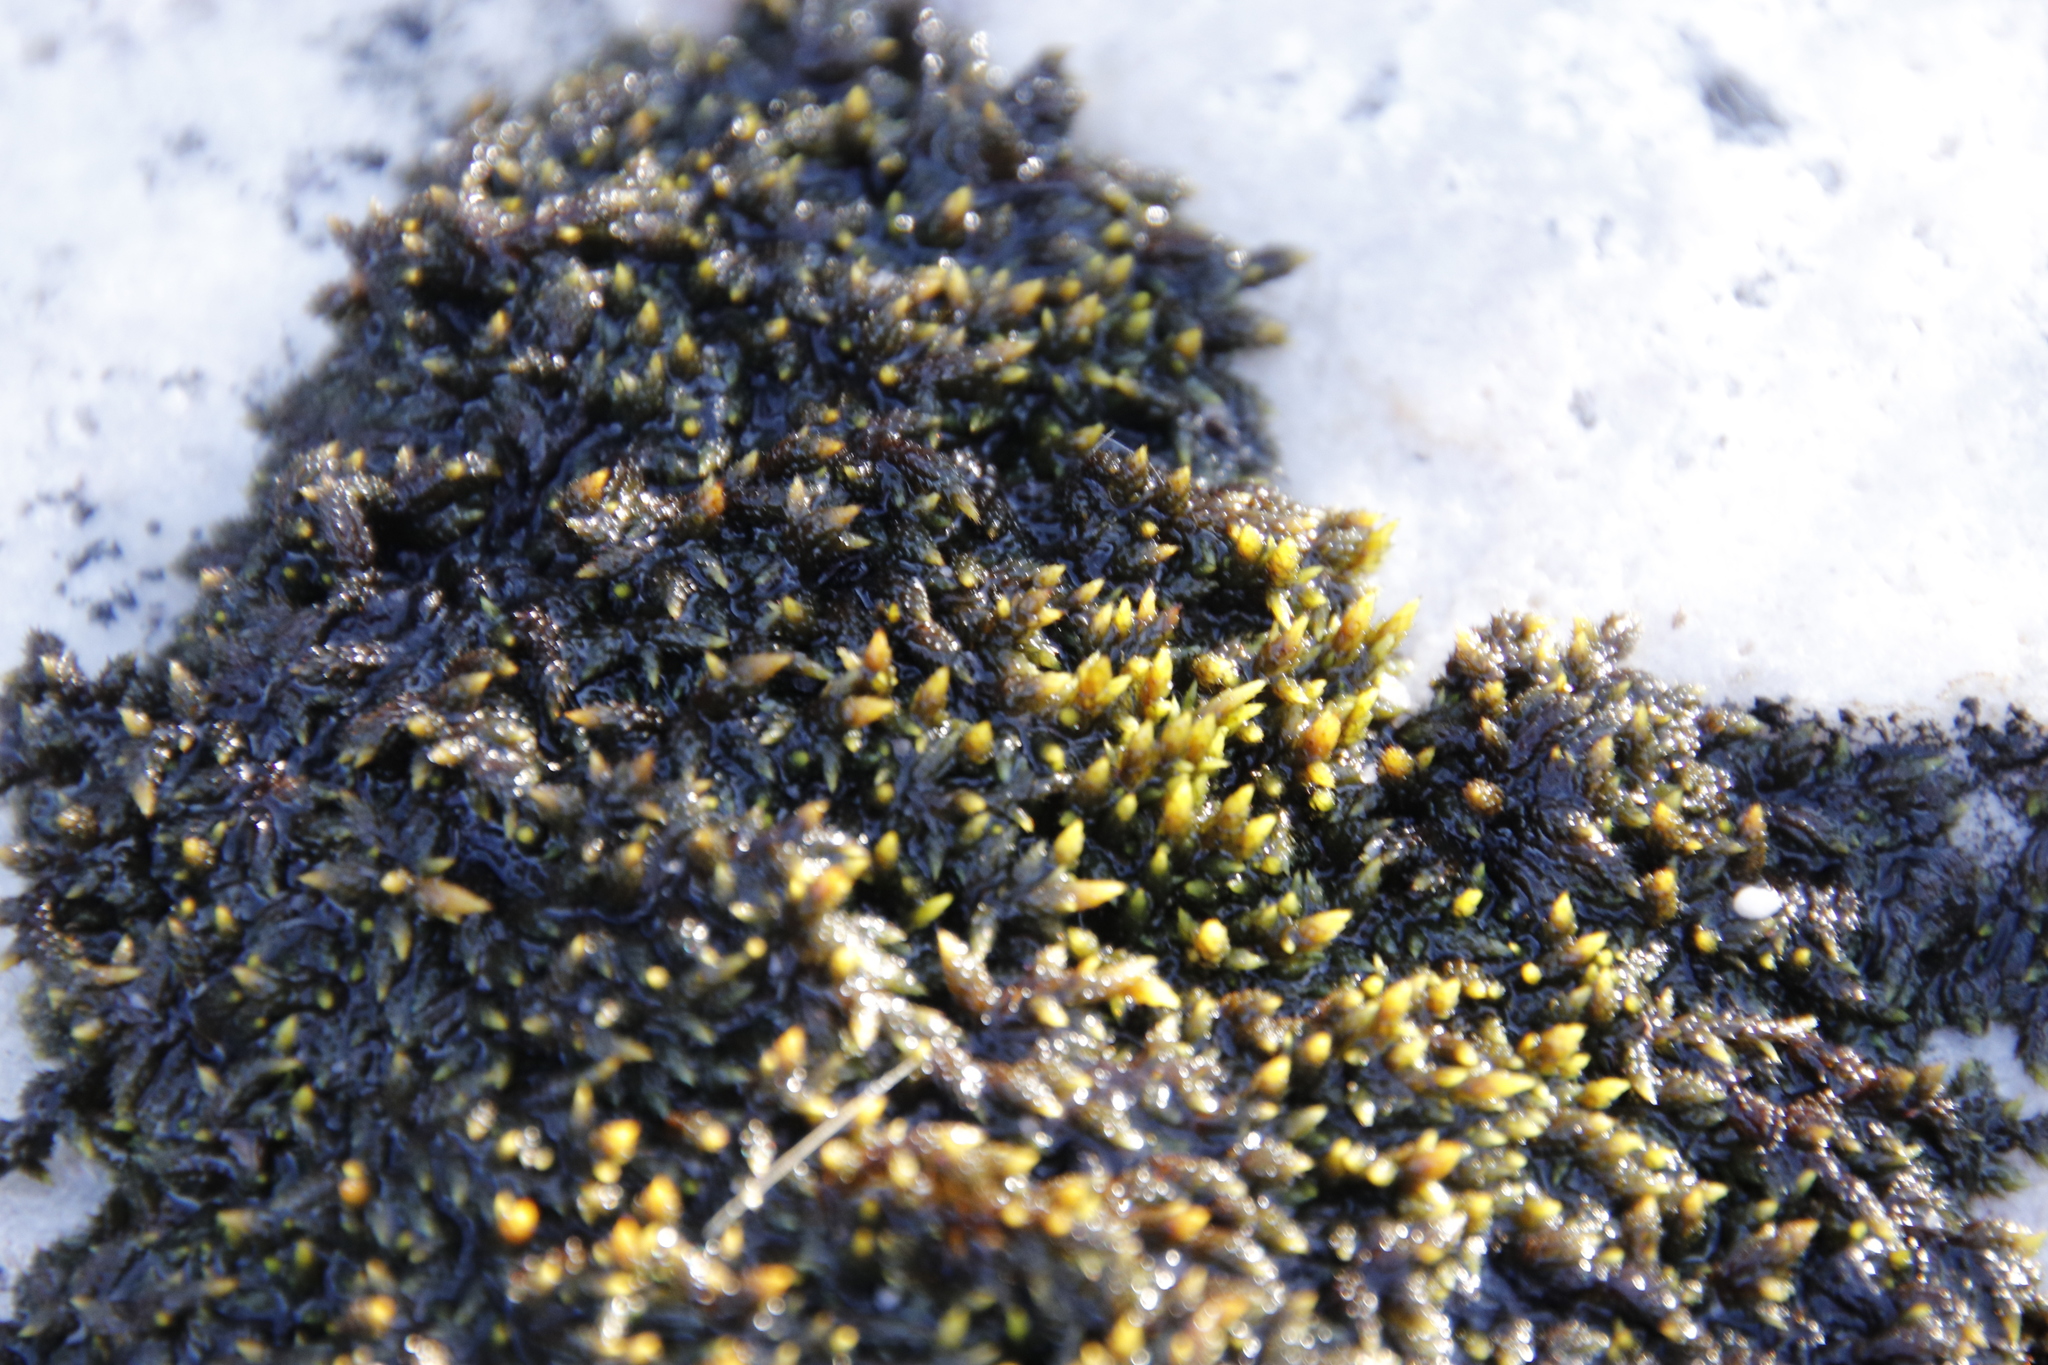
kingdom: Plantae
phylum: Bryophyta
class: Bryopsida
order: Hedwigiales
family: Hedwigiaceae
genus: Rhacocarpus
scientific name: Rhacocarpus purpurascens
